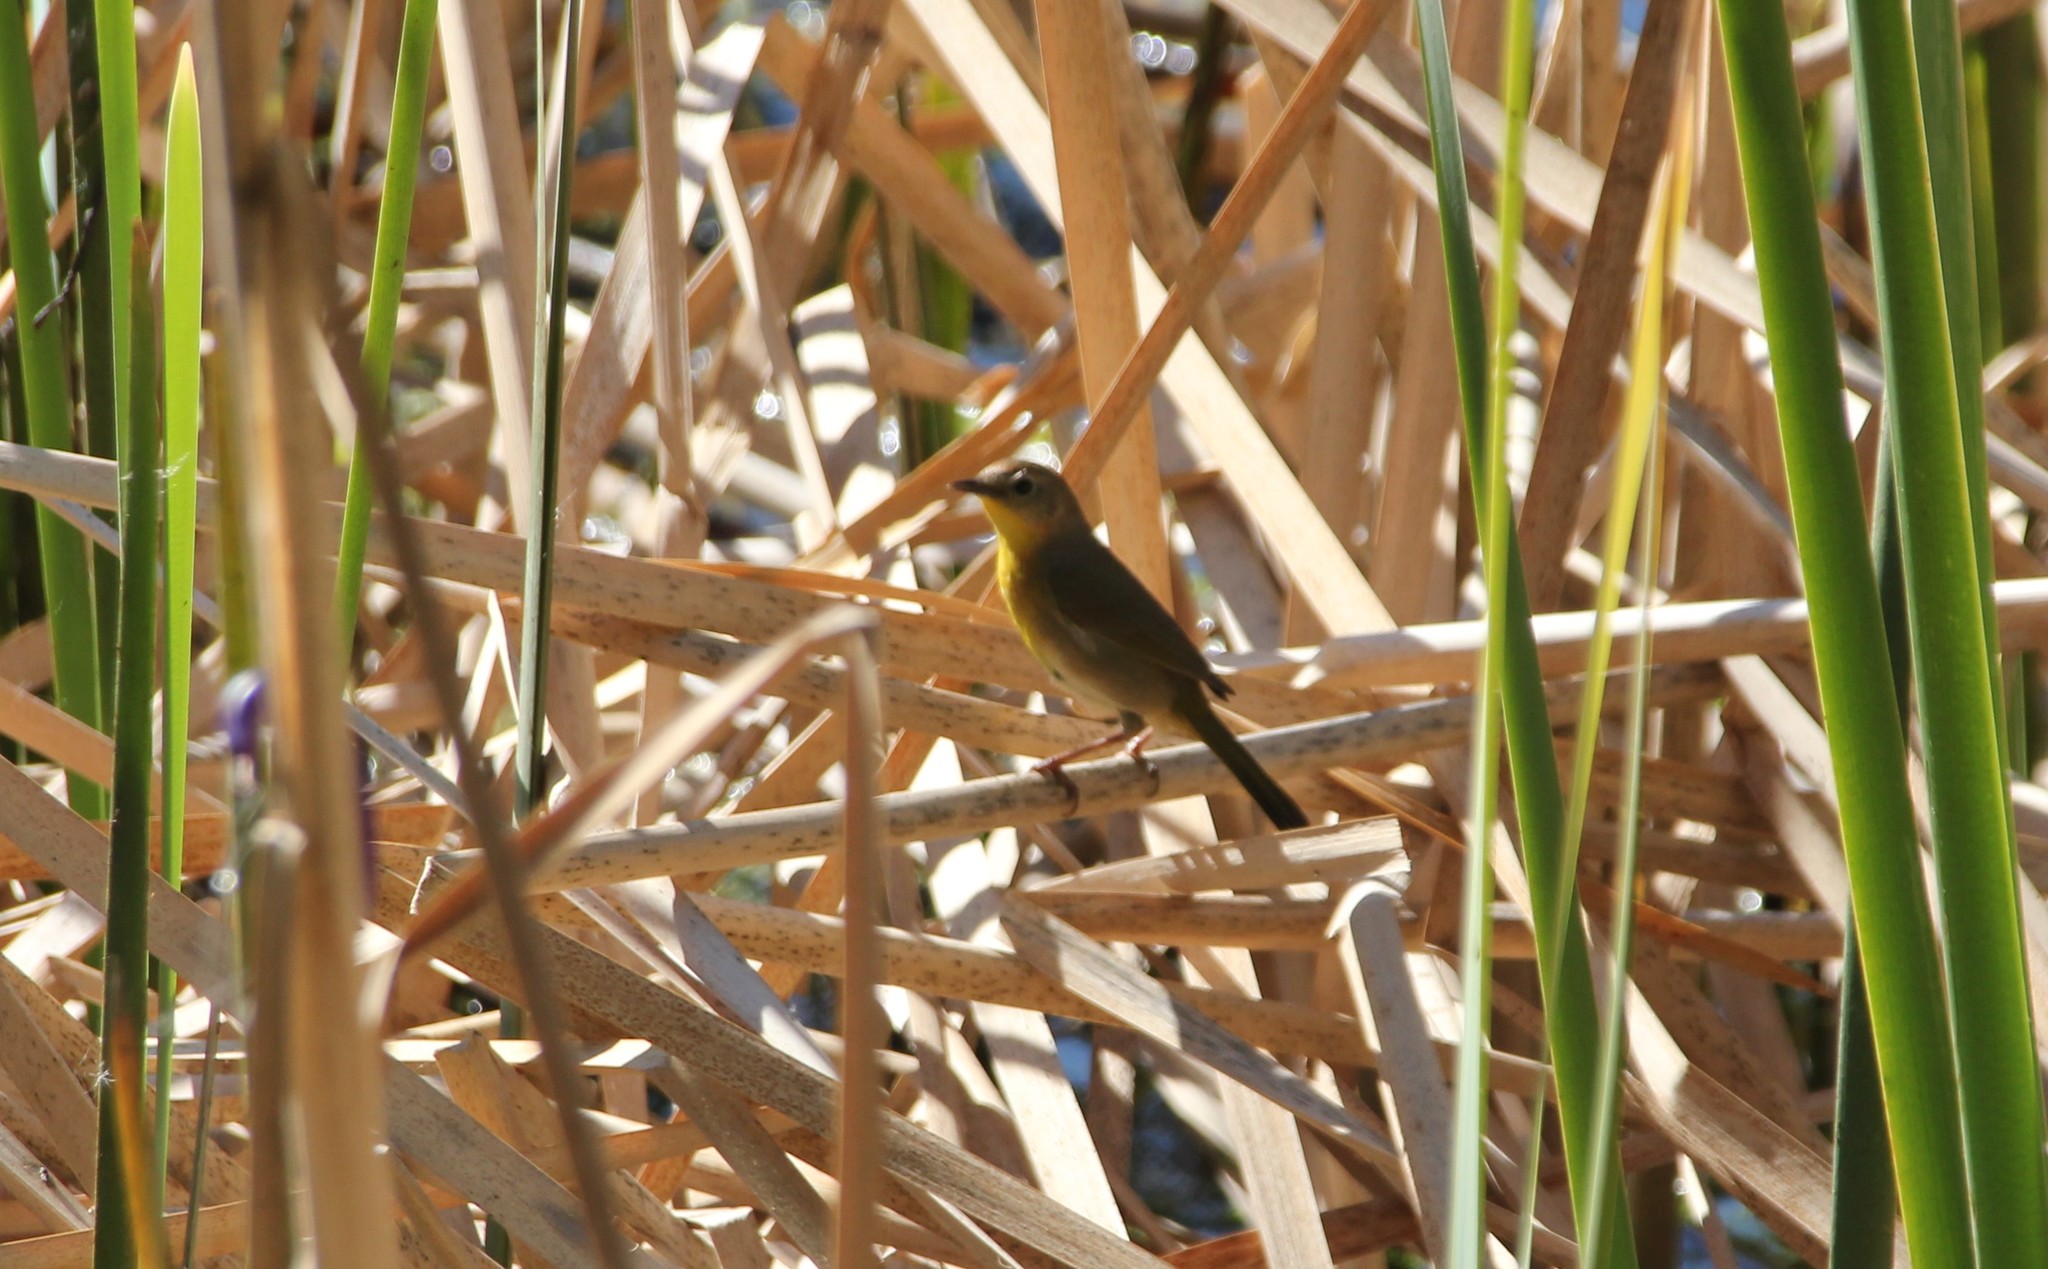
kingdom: Animalia
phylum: Chordata
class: Aves
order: Passeriformes
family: Parulidae
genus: Geothlypis
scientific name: Geothlypis trichas
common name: Common yellowthroat
